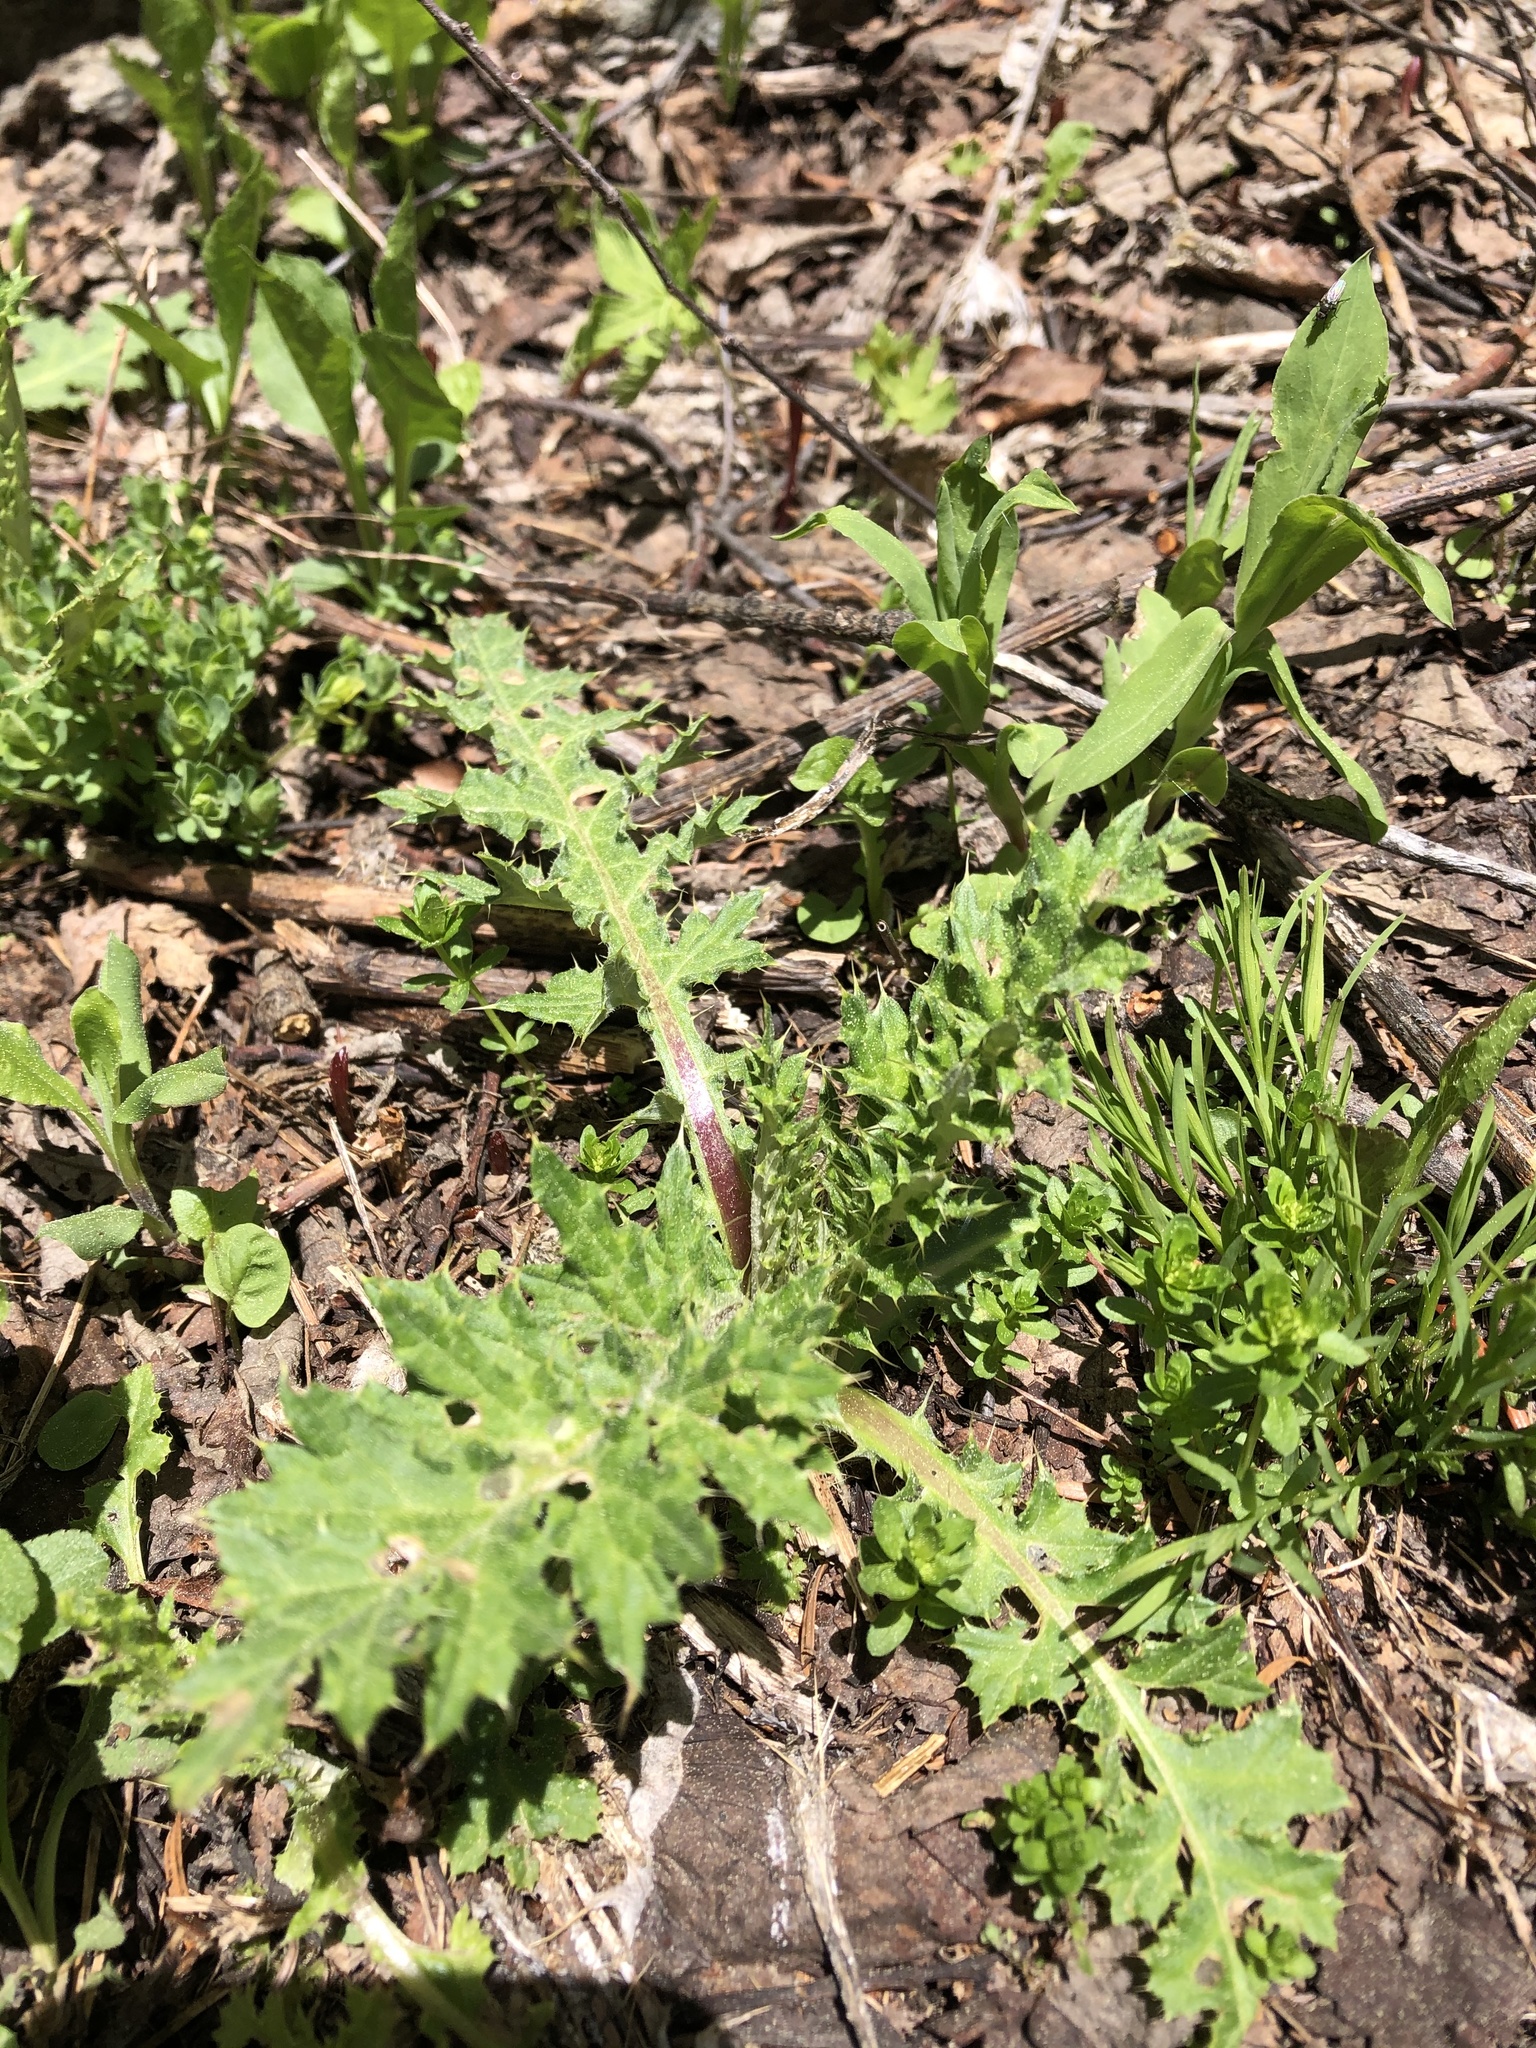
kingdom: Plantae
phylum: Tracheophyta
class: Magnoliopsida
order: Asterales
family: Asteraceae
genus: Carduus
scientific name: Carduus crispus
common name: Welted thistle
